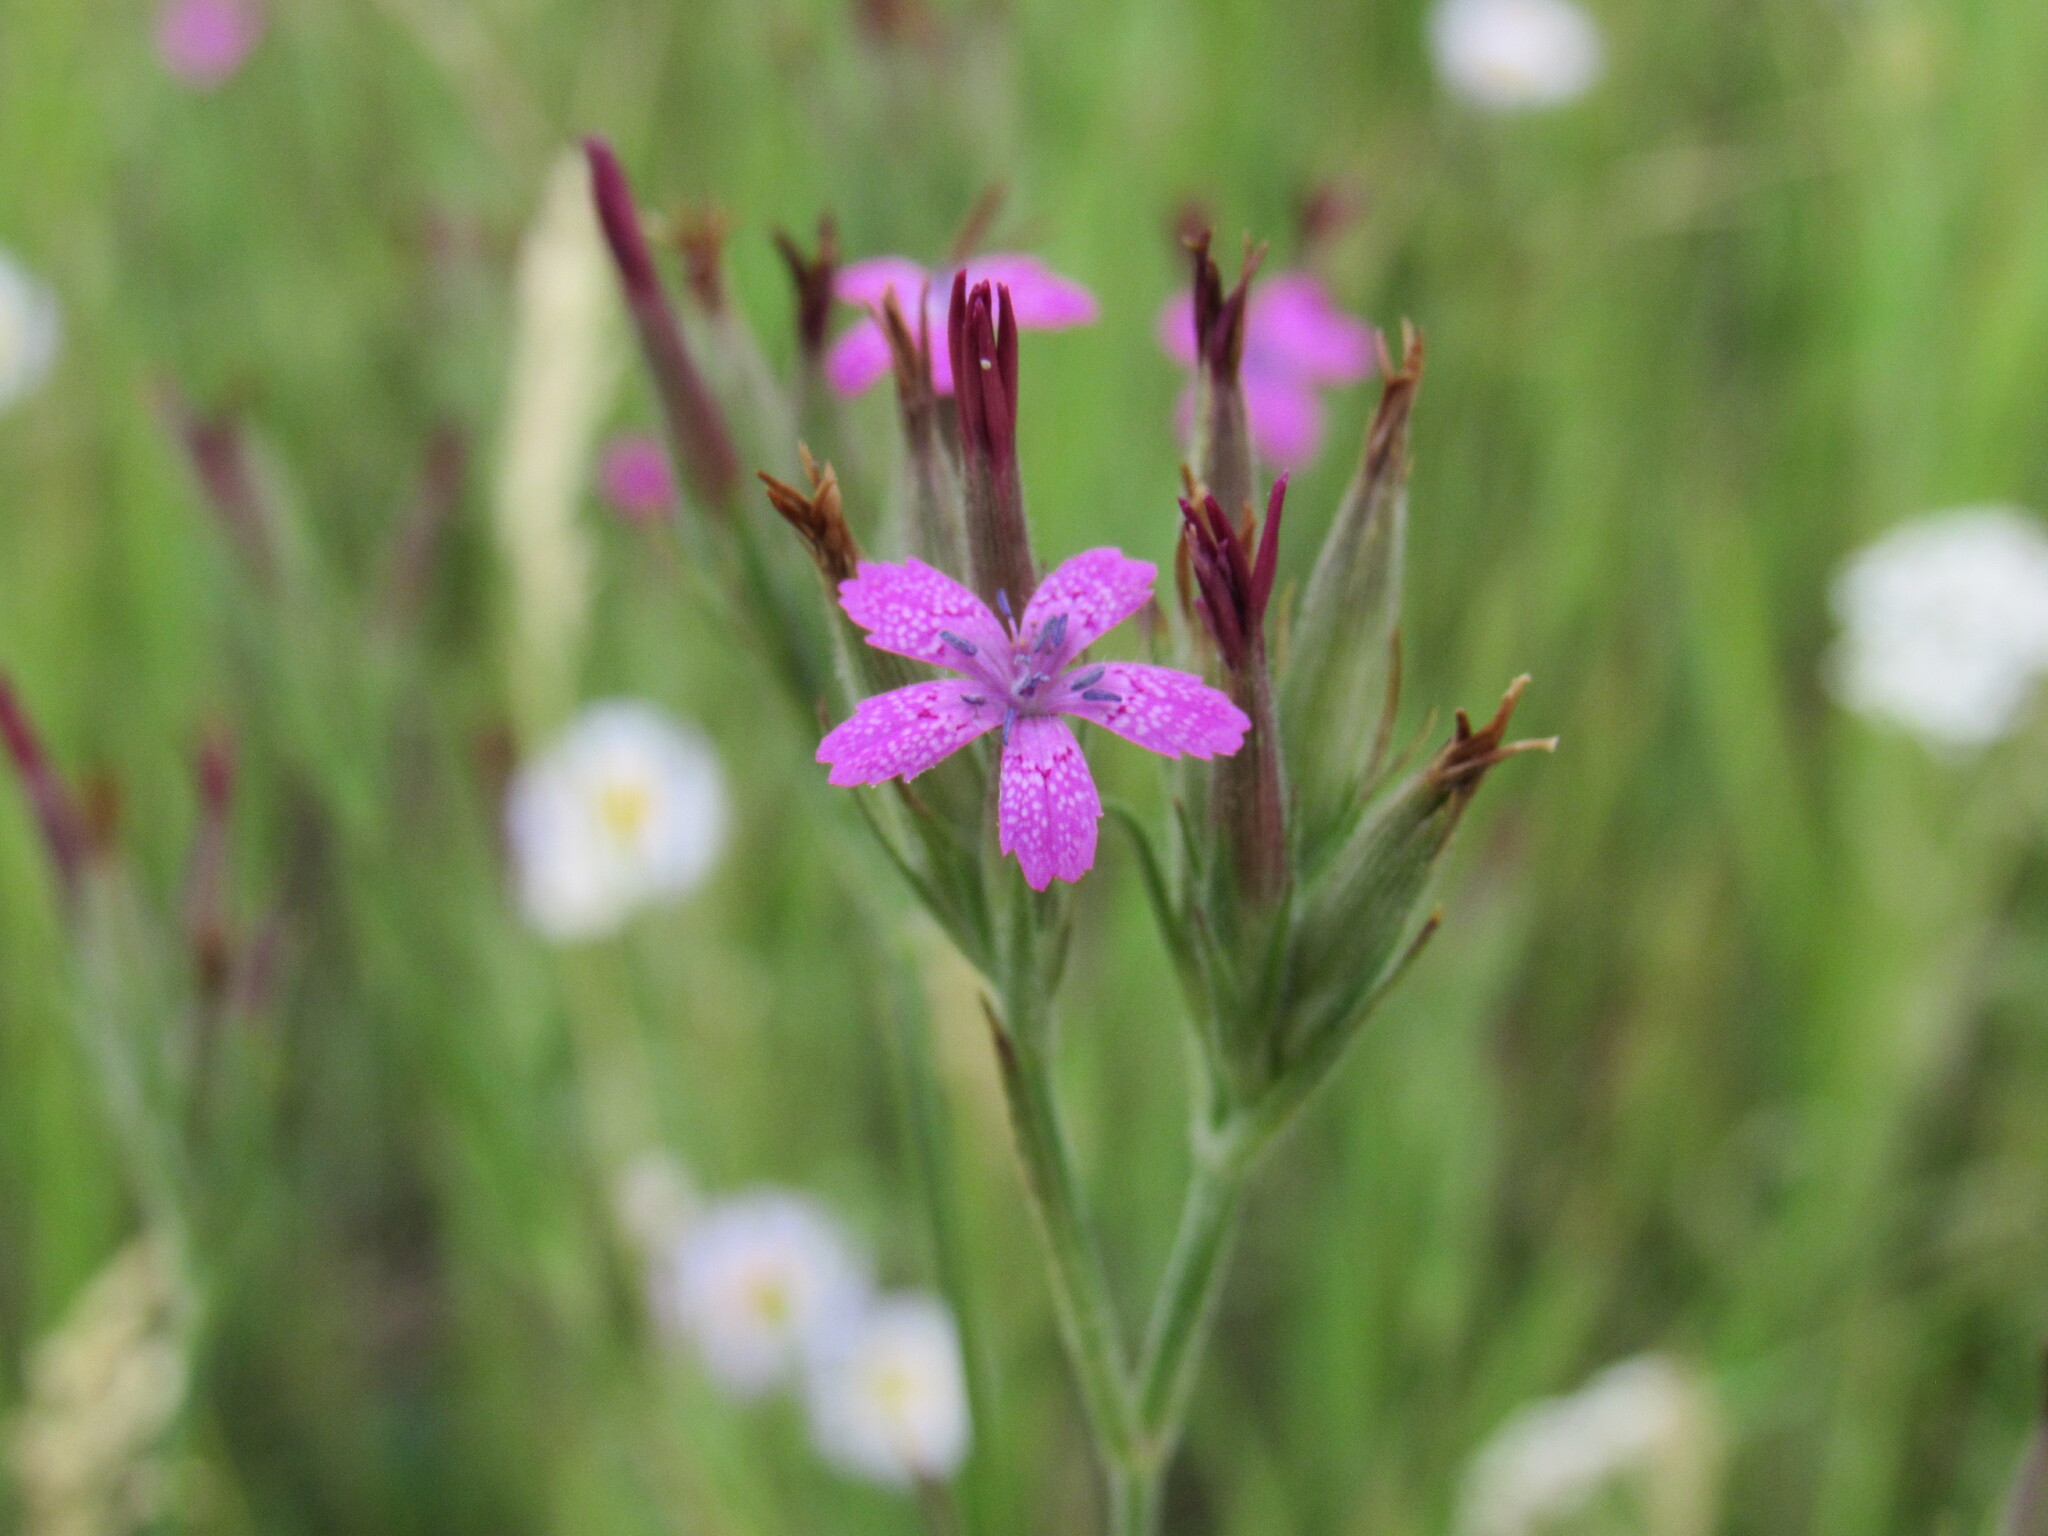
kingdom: Plantae
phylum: Tracheophyta
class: Magnoliopsida
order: Caryophyllales
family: Caryophyllaceae
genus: Dianthus
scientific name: Dianthus armeria
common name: Deptford pink
